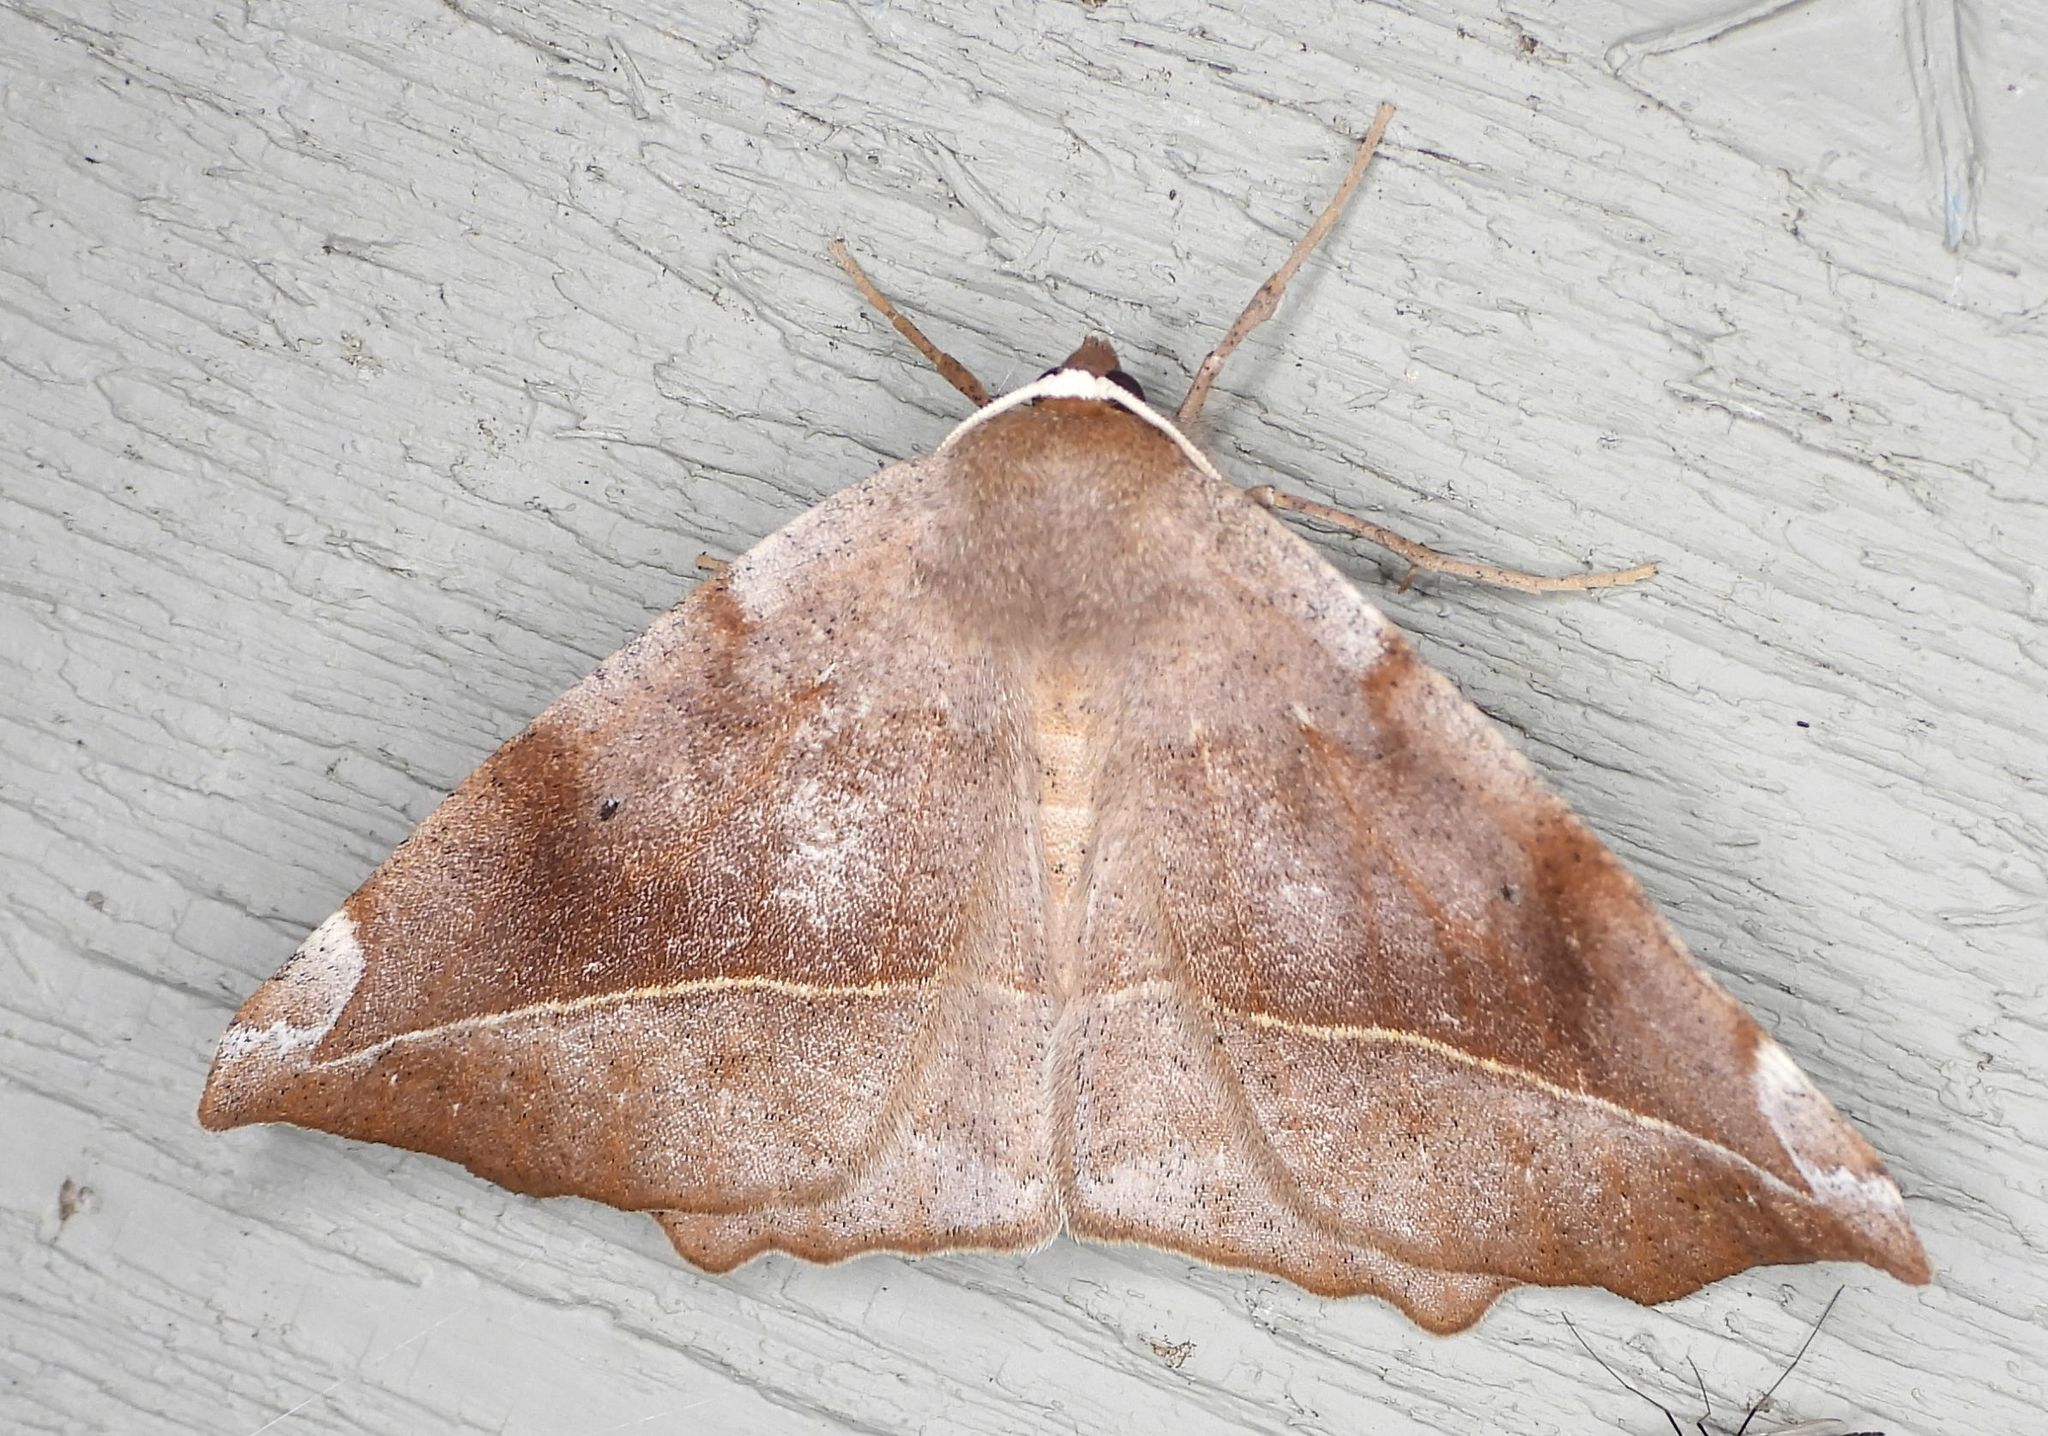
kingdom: Animalia
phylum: Arthropoda
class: Insecta
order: Lepidoptera
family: Geometridae
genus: Eutrapela
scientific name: Eutrapela clemataria
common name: Curved-toothed geometer
